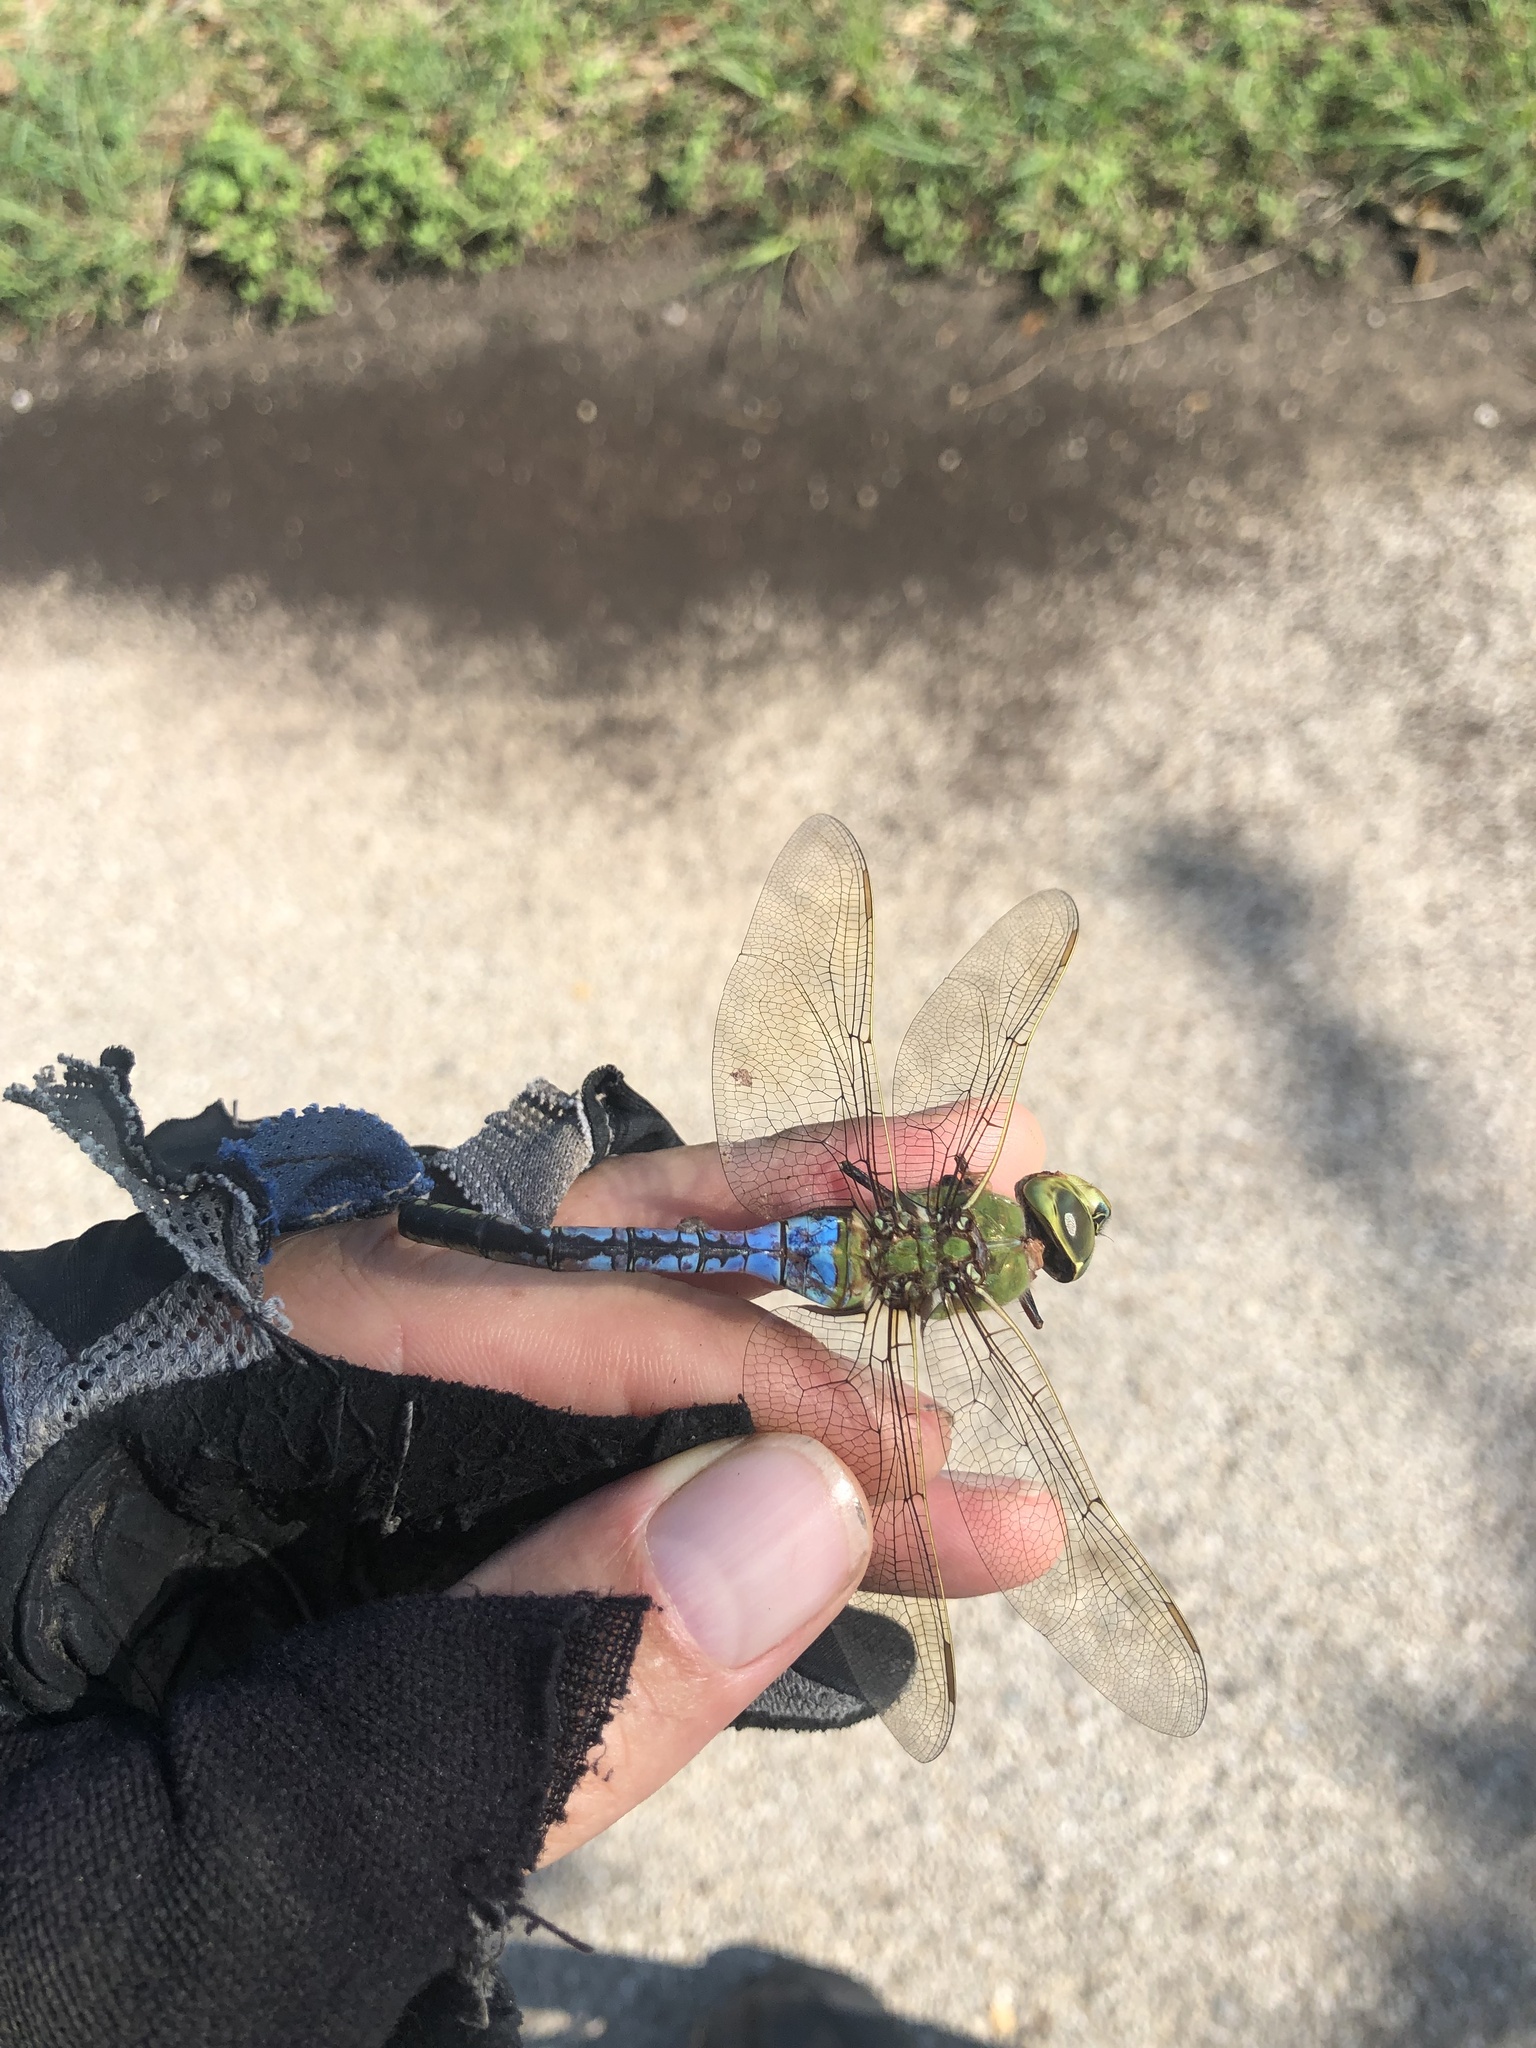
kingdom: Animalia
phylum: Arthropoda
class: Insecta
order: Odonata
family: Aeshnidae
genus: Anax
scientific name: Anax junius
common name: Common green darner
